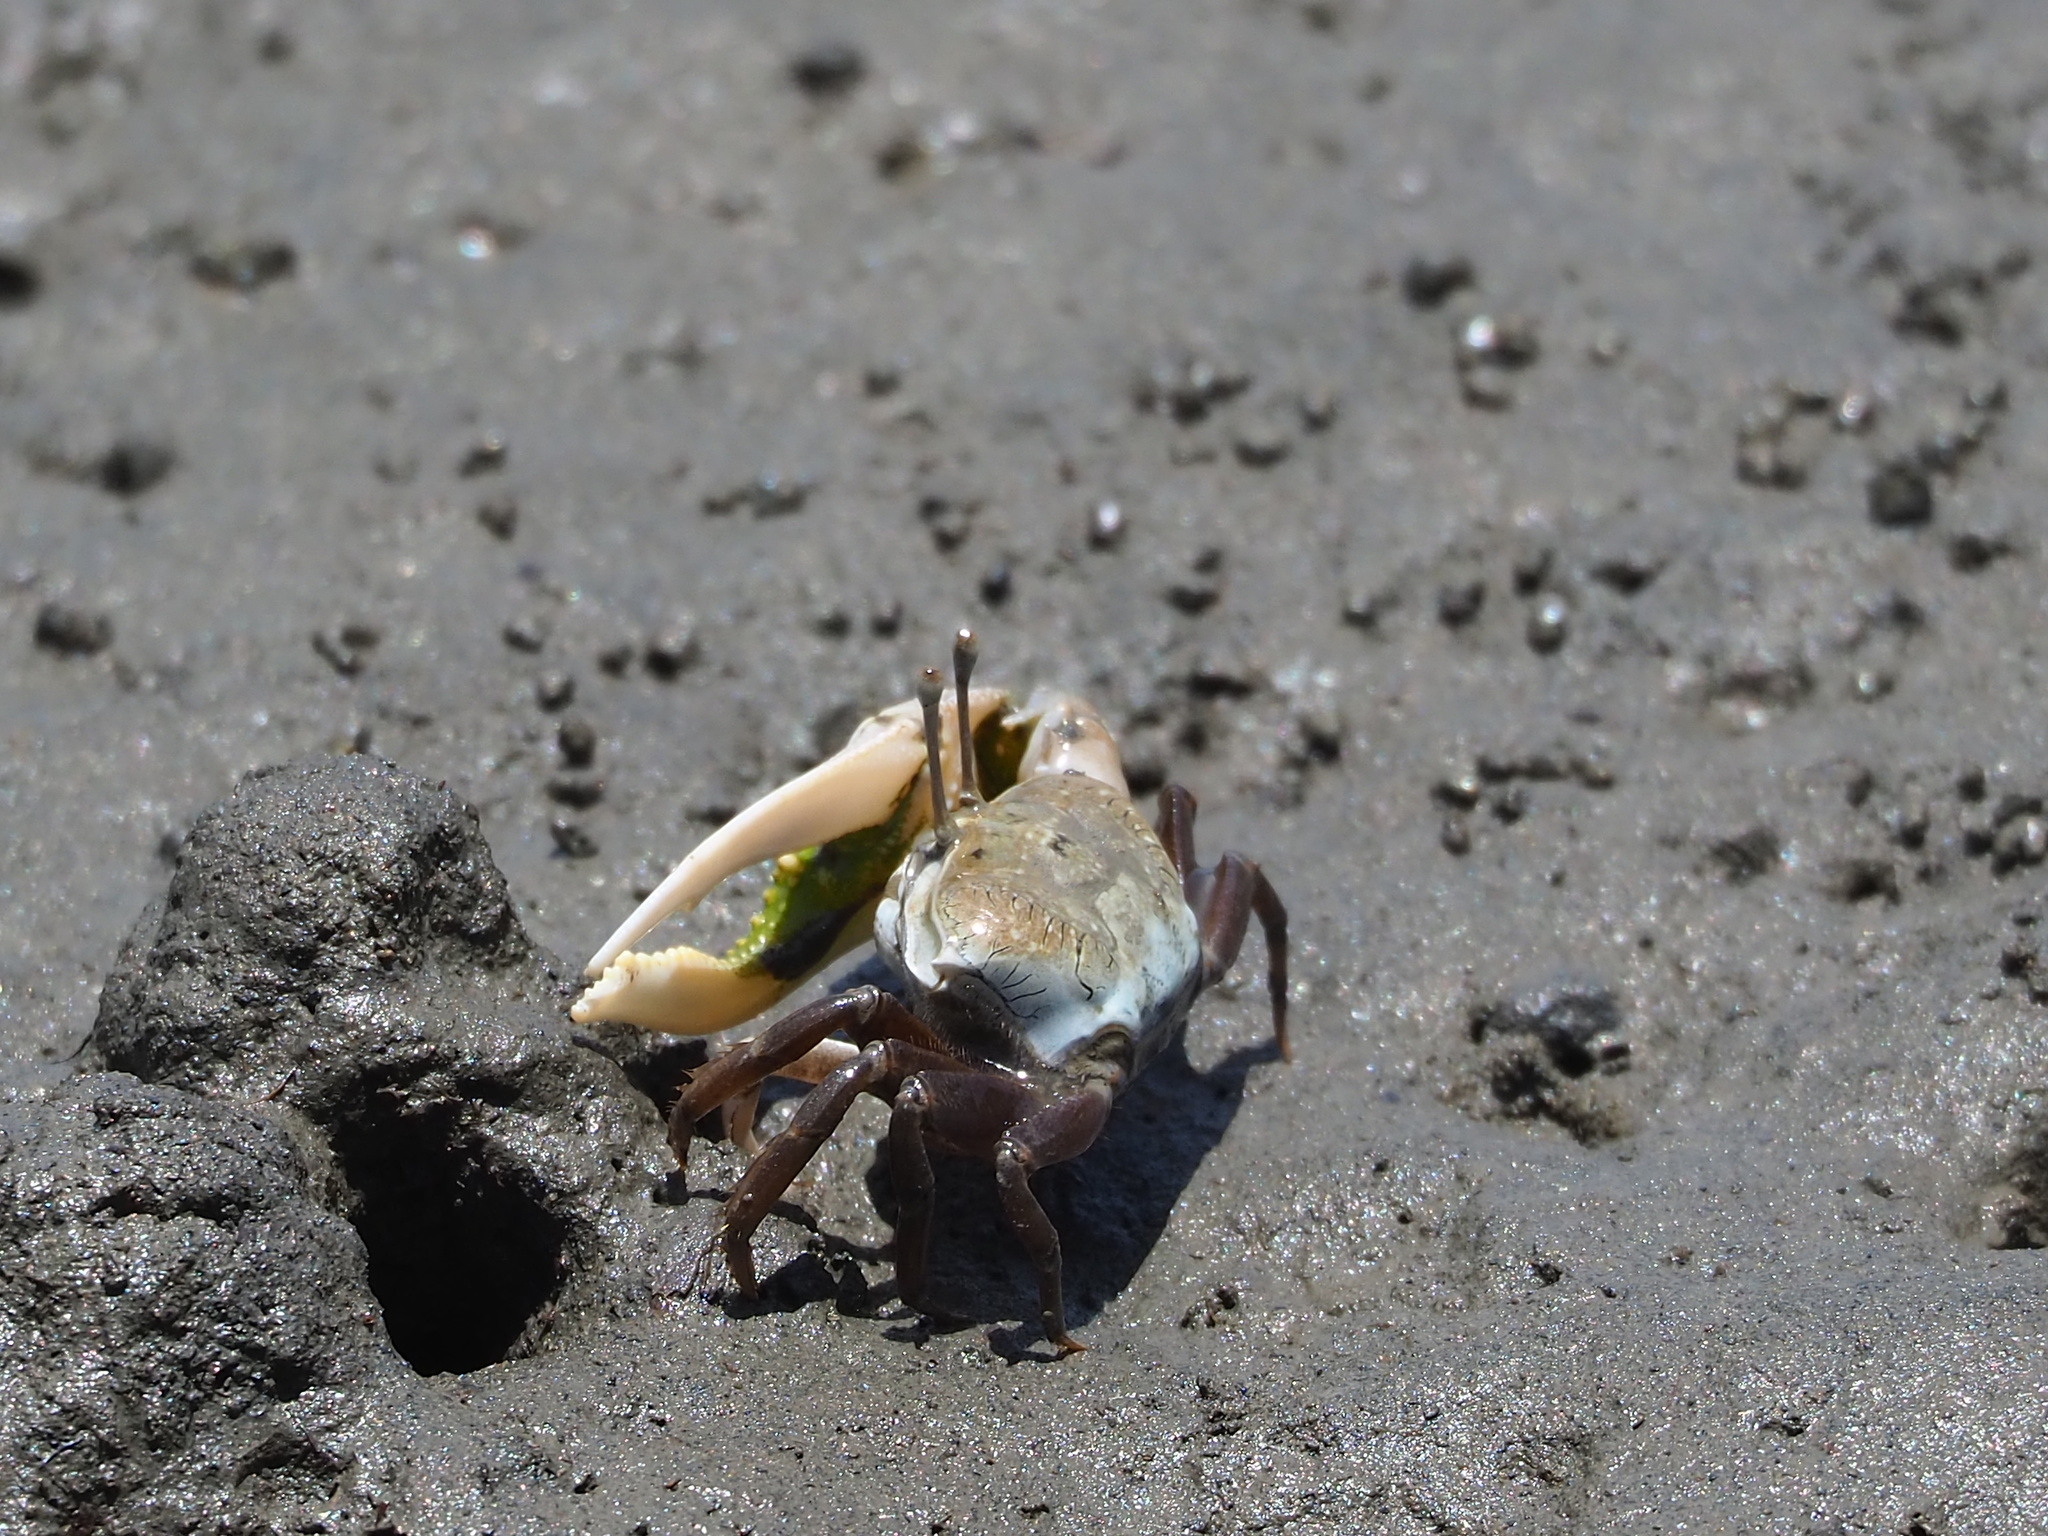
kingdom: Animalia
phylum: Arthropoda
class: Malacostraca
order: Decapoda
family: Ocypodidae
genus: Gelasimus
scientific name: Gelasimus borealis
